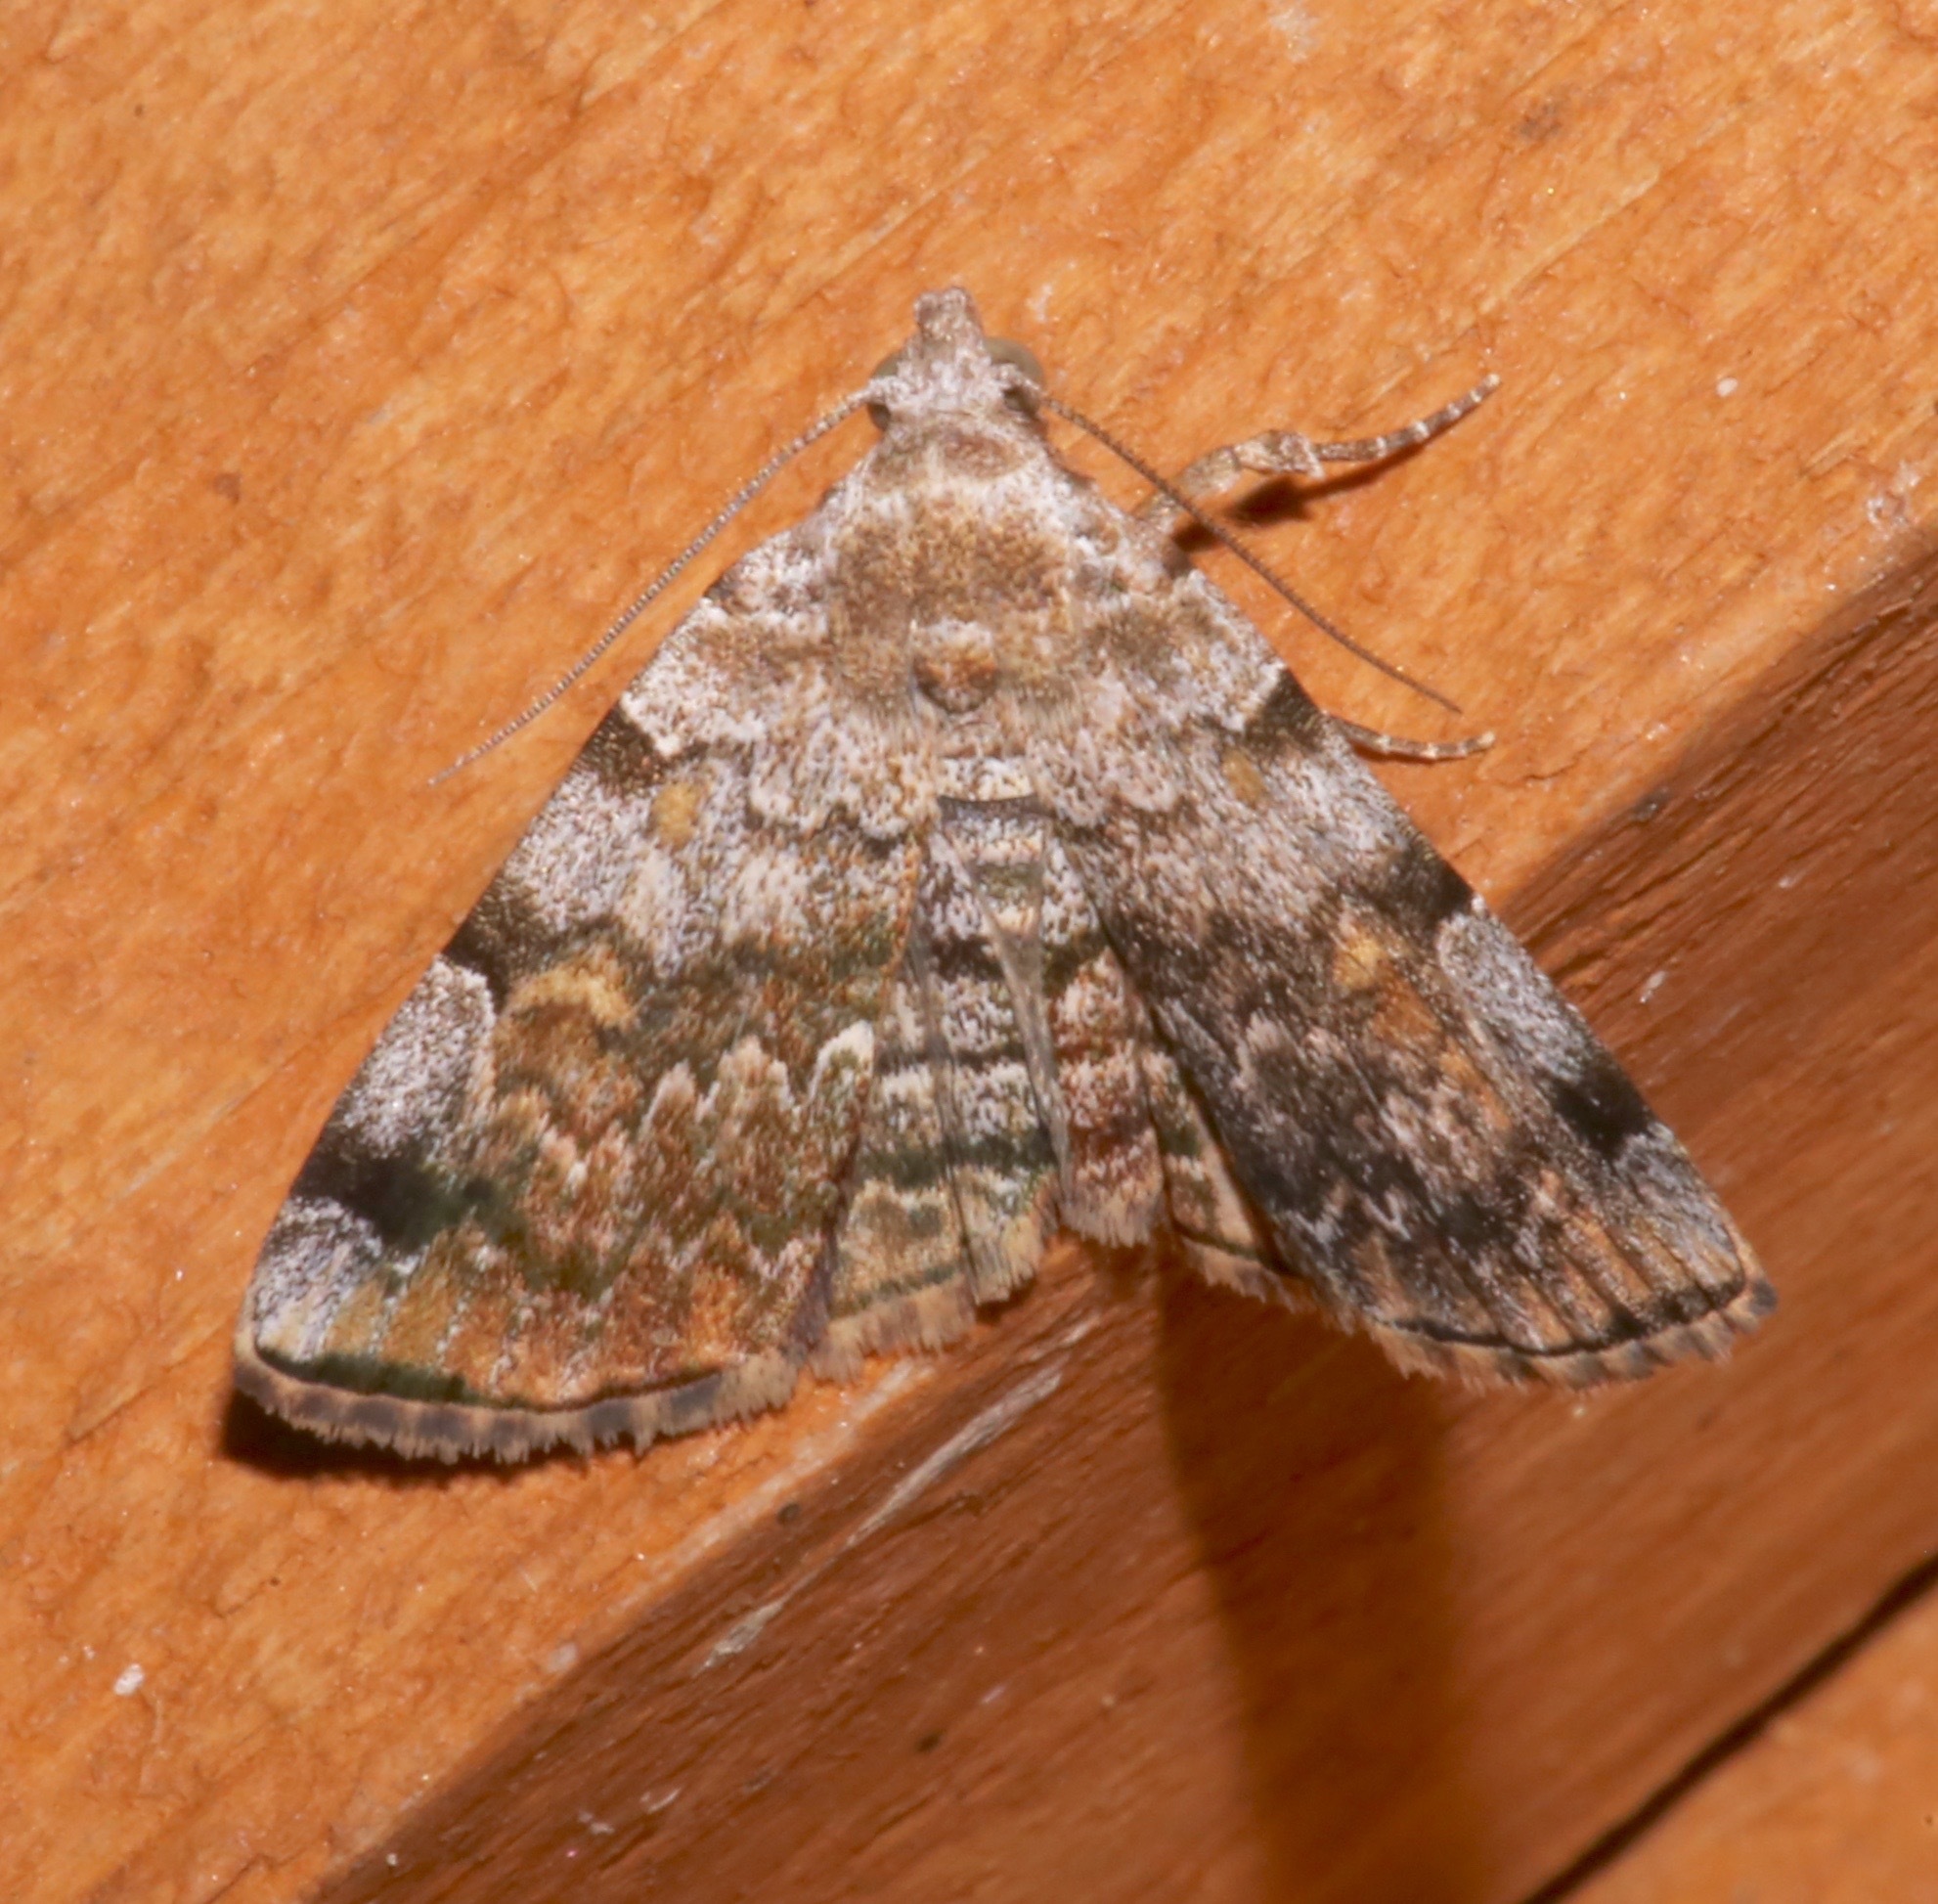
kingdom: Animalia
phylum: Arthropoda
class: Insecta
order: Lepidoptera
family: Erebidae
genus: Idia
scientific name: Idia americalis
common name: American idia moth
